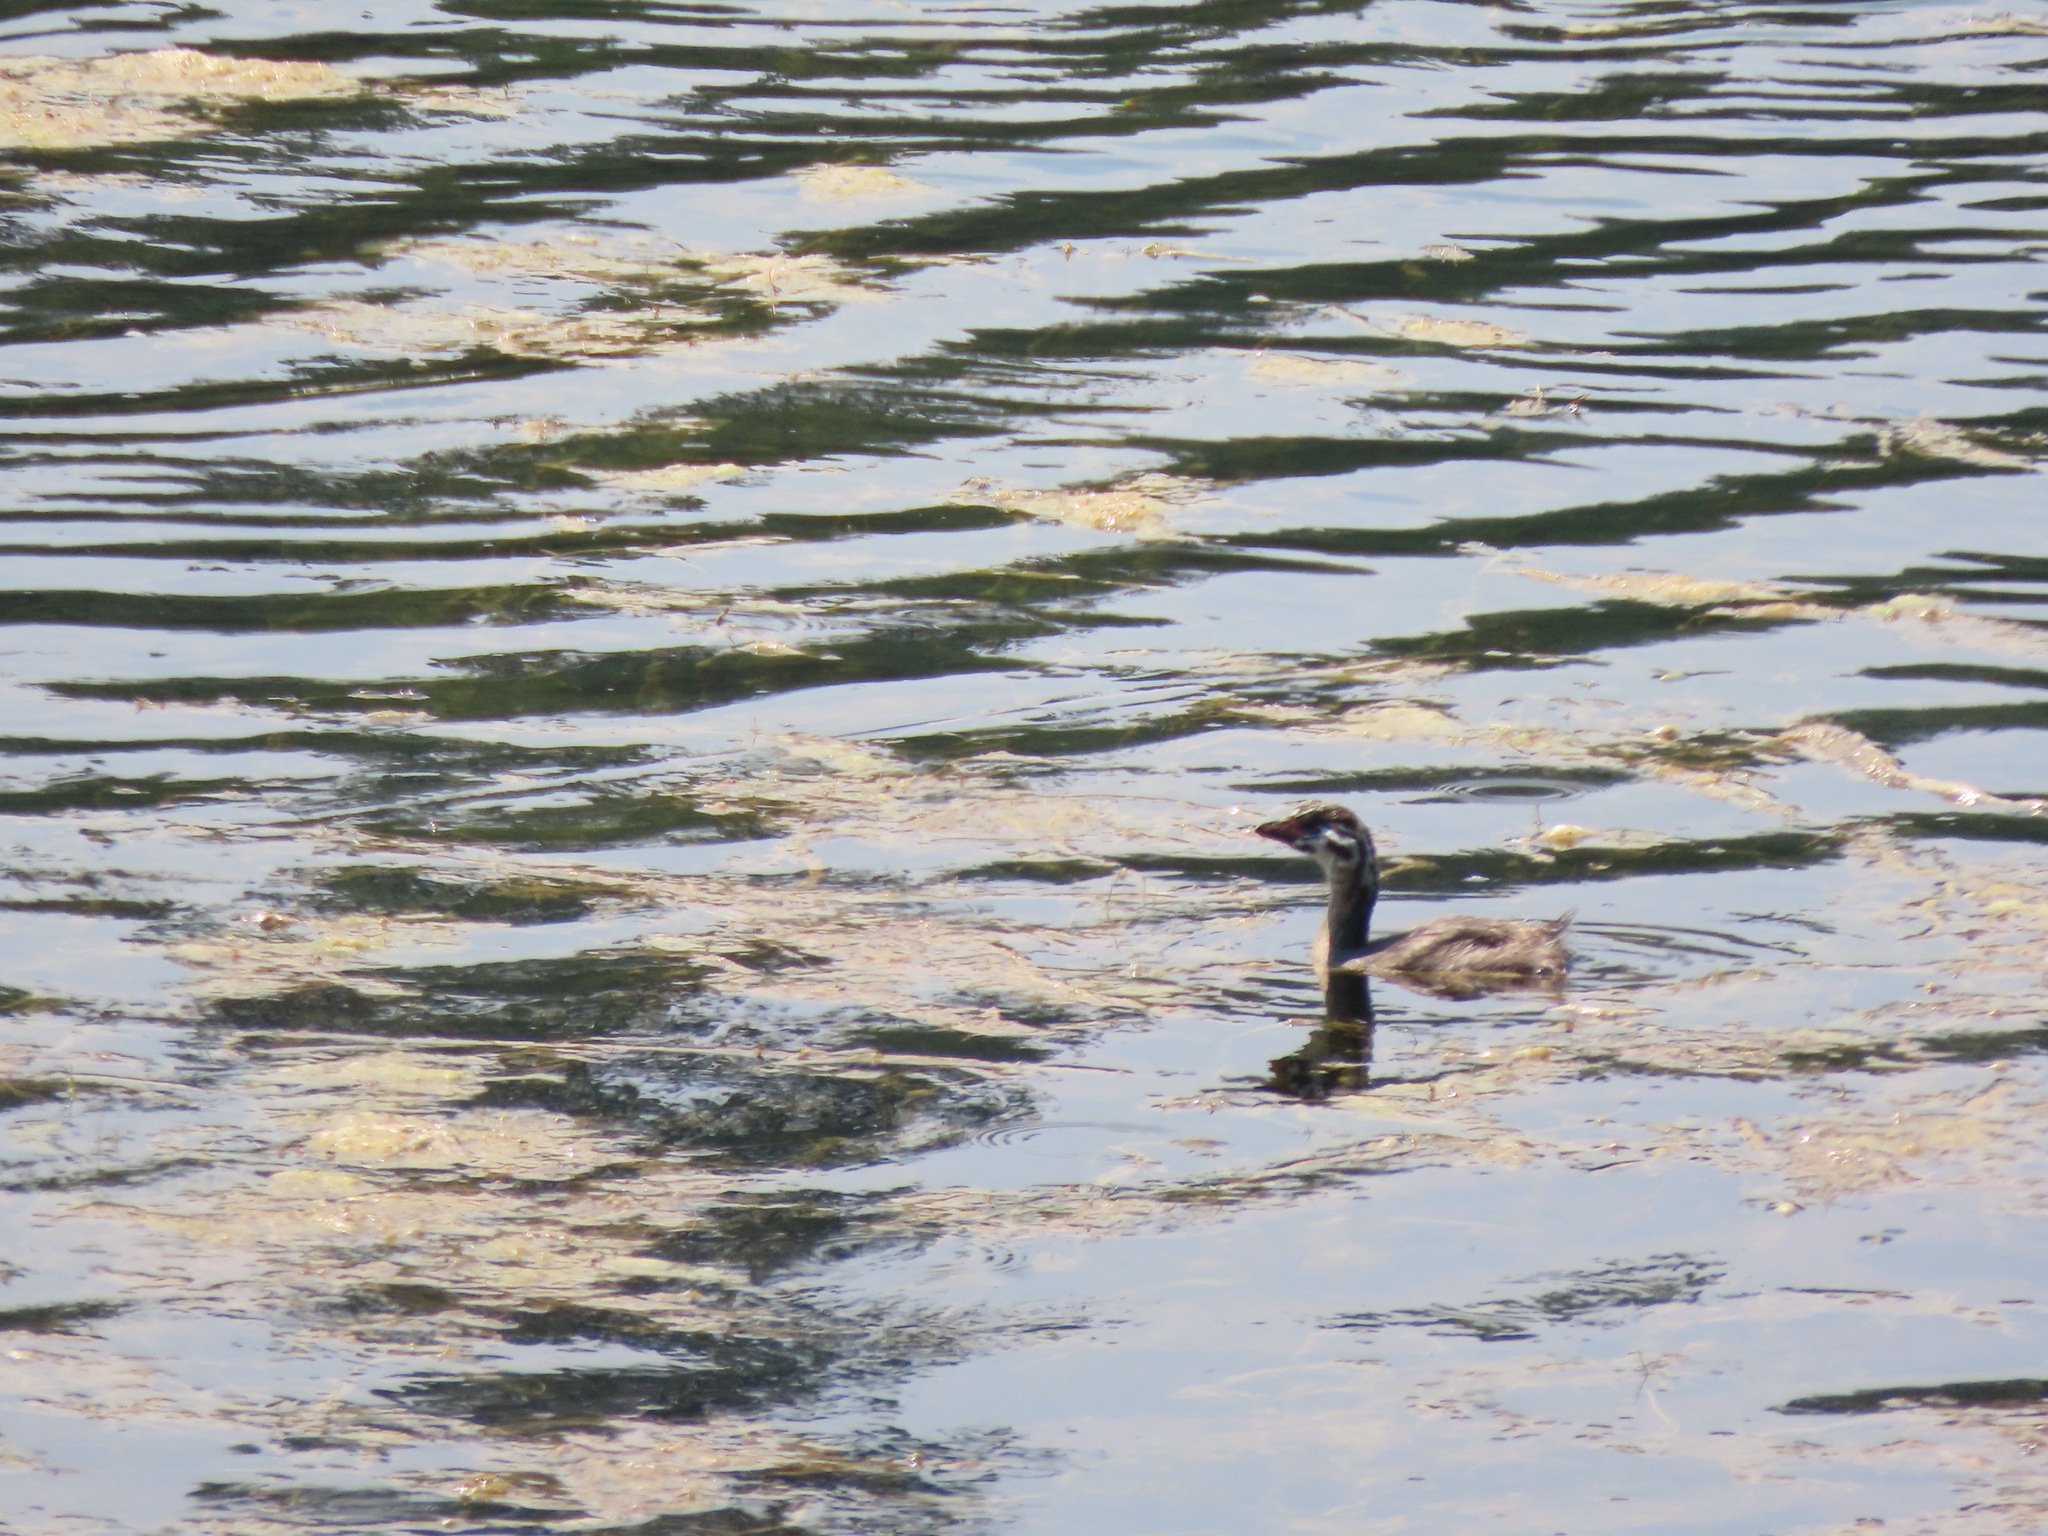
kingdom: Animalia
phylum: Chordata
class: Aves
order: Podicipediformes
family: Podicipedidae
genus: Podilymbus
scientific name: Podilymbus podiceps
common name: Pied-billed grebe
